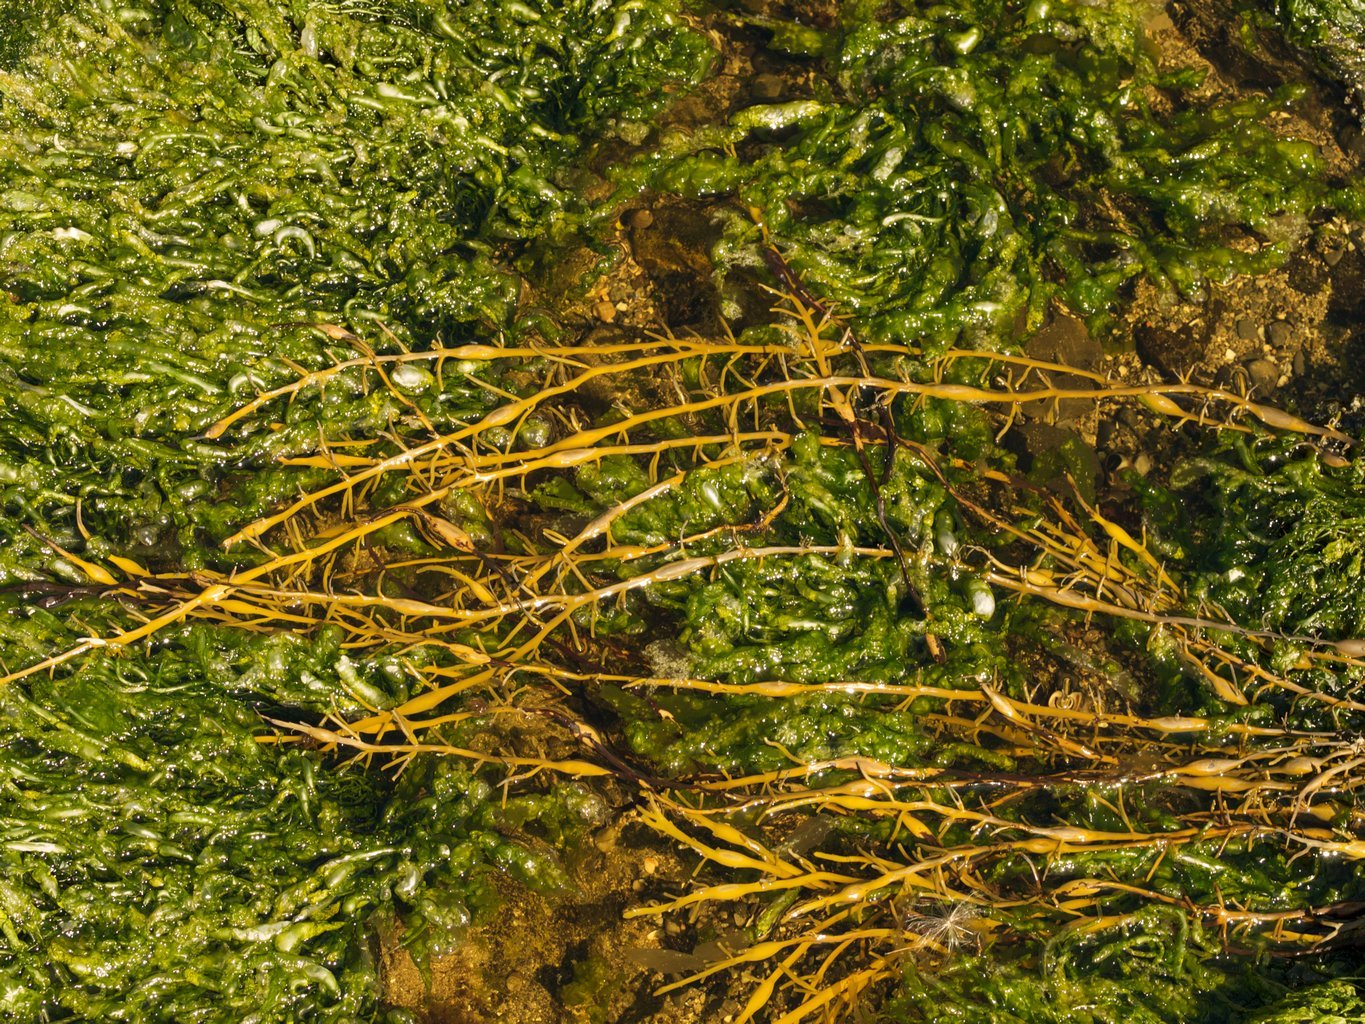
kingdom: Chromista
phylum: Ochrophyta
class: Phaeophyceae
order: Fucales
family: Fucaceae
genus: Ascophyllum
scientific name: Ascophyllum nodosum
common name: Knotted wrack
